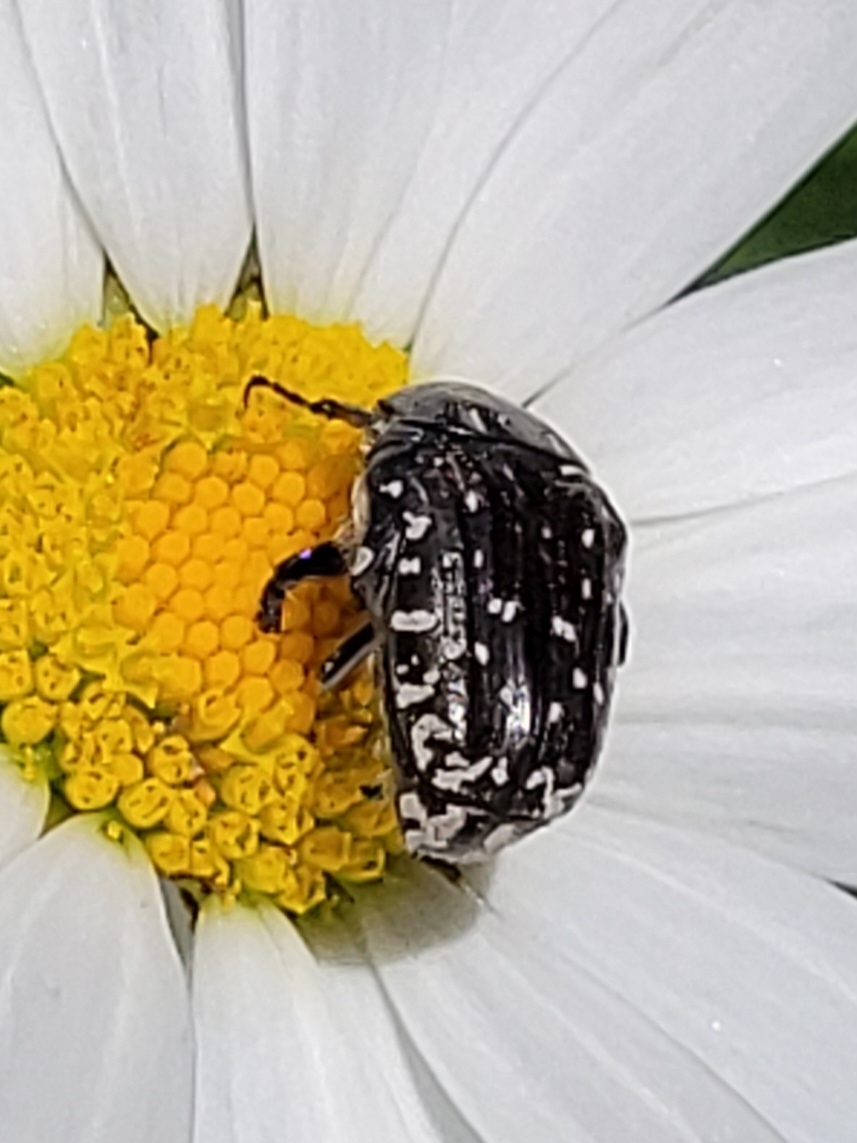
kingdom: Animalia
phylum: Arthropoda
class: Insecta
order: Coleoptera
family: Scarabaeidae
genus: Oxythyrea
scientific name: Oxythyrea funesta
